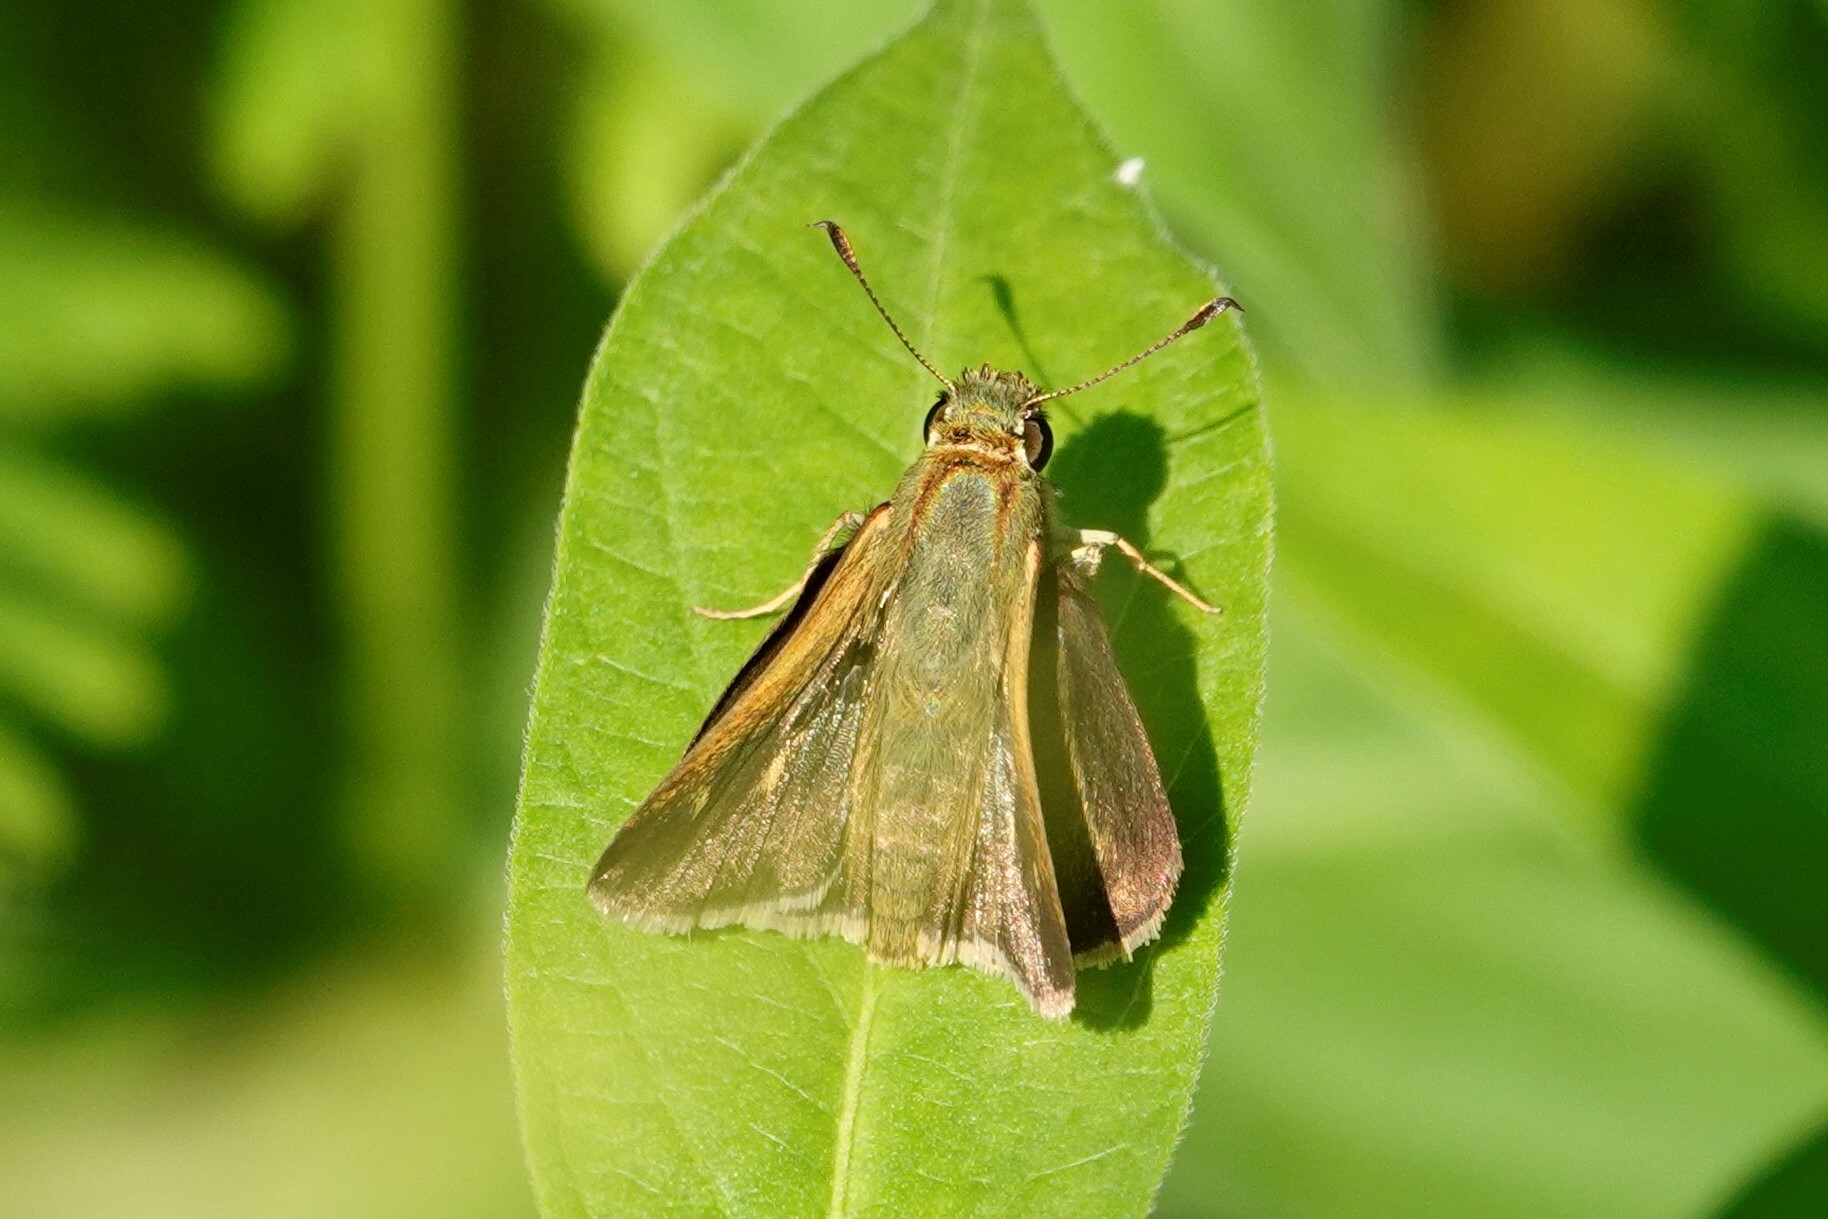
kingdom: Animalia
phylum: Arthropoda
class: Insecta
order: Lepidoptera
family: Hesperiidae
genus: Polites
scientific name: Polites egeremet
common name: Northern broken-dash
